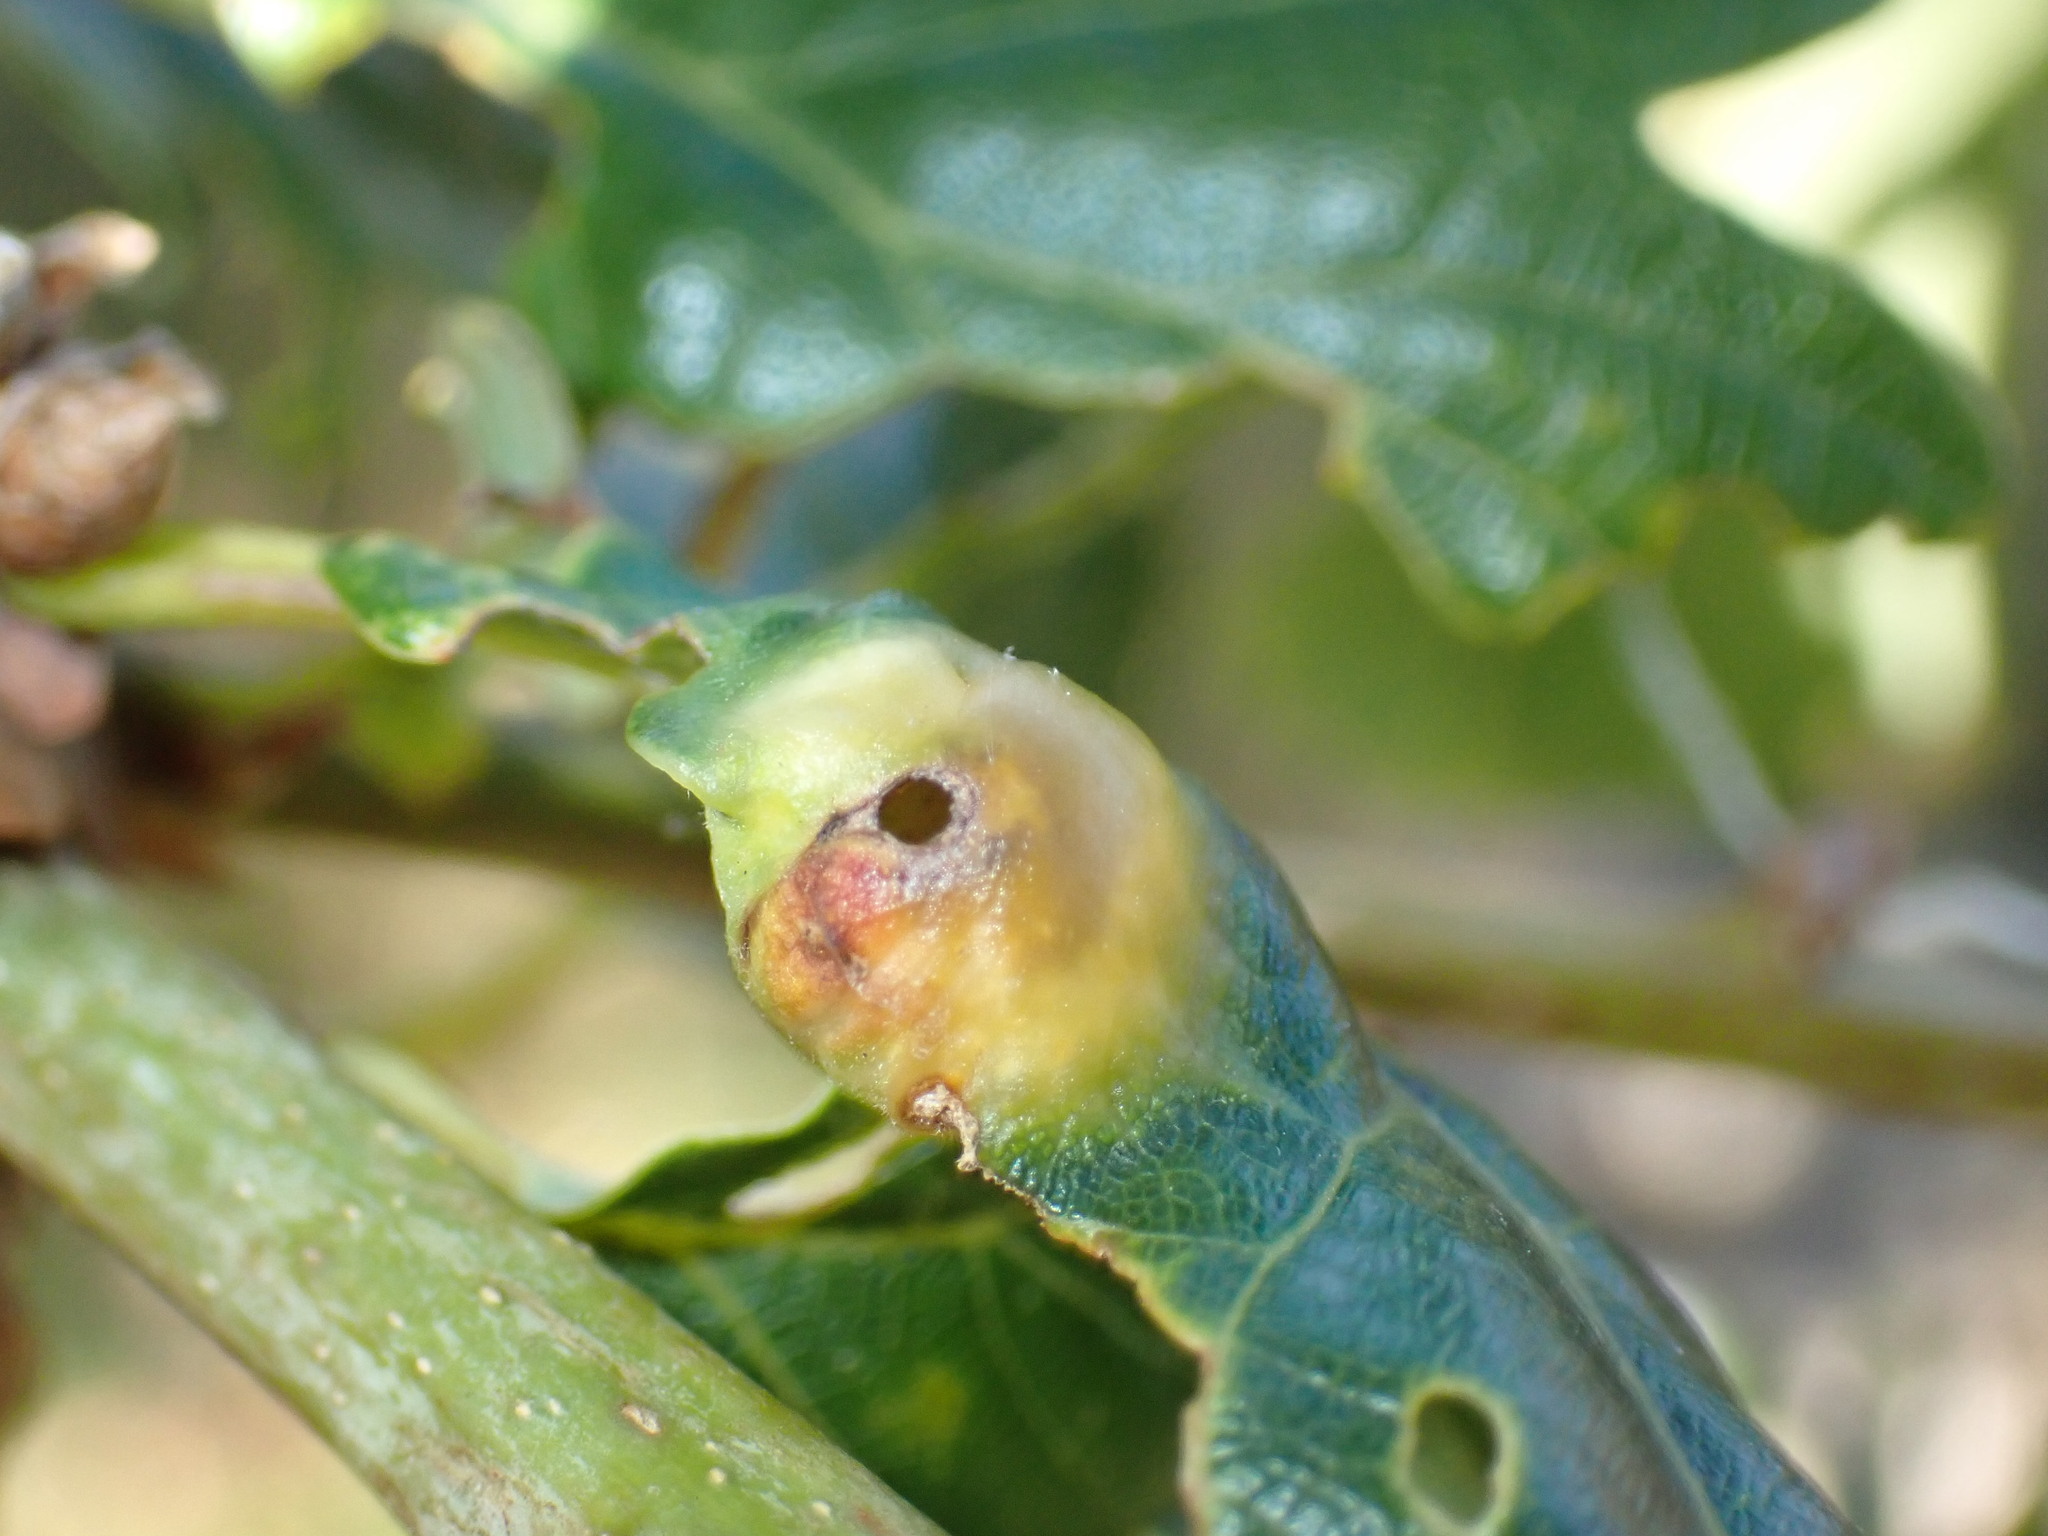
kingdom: Animalia
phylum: Arthropoda
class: Insecta
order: Hymenoptera
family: Cynipidae
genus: Andricus
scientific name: Andricus curvator
